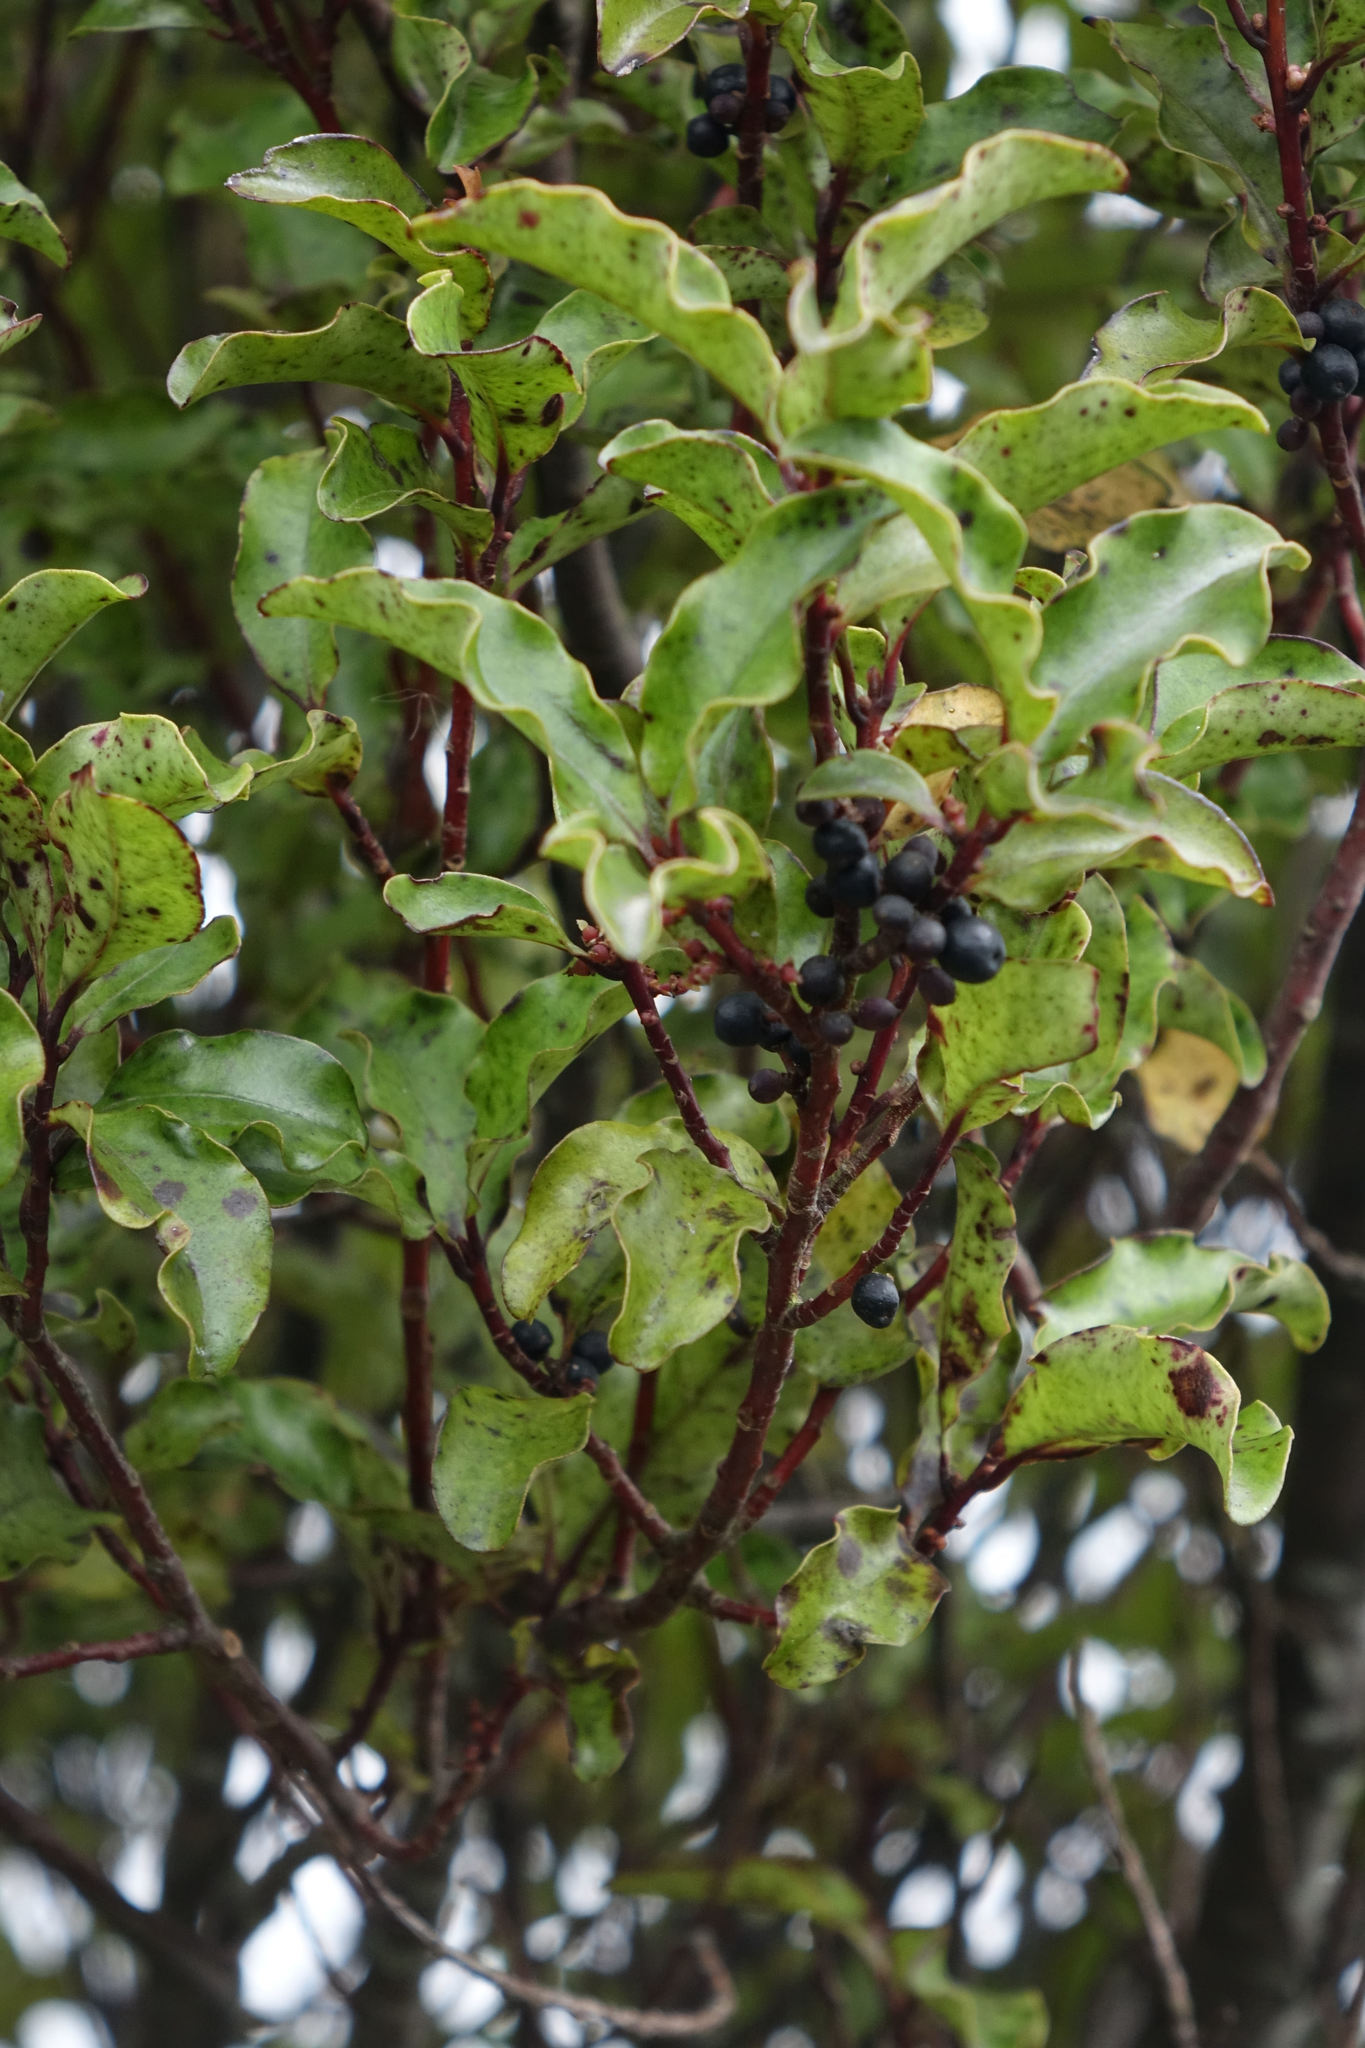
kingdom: Plantae
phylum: Tracheophyta
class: Magnoliopsida
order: Ericales
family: Primulaceae
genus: Myrsine
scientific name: Myrsine australis
